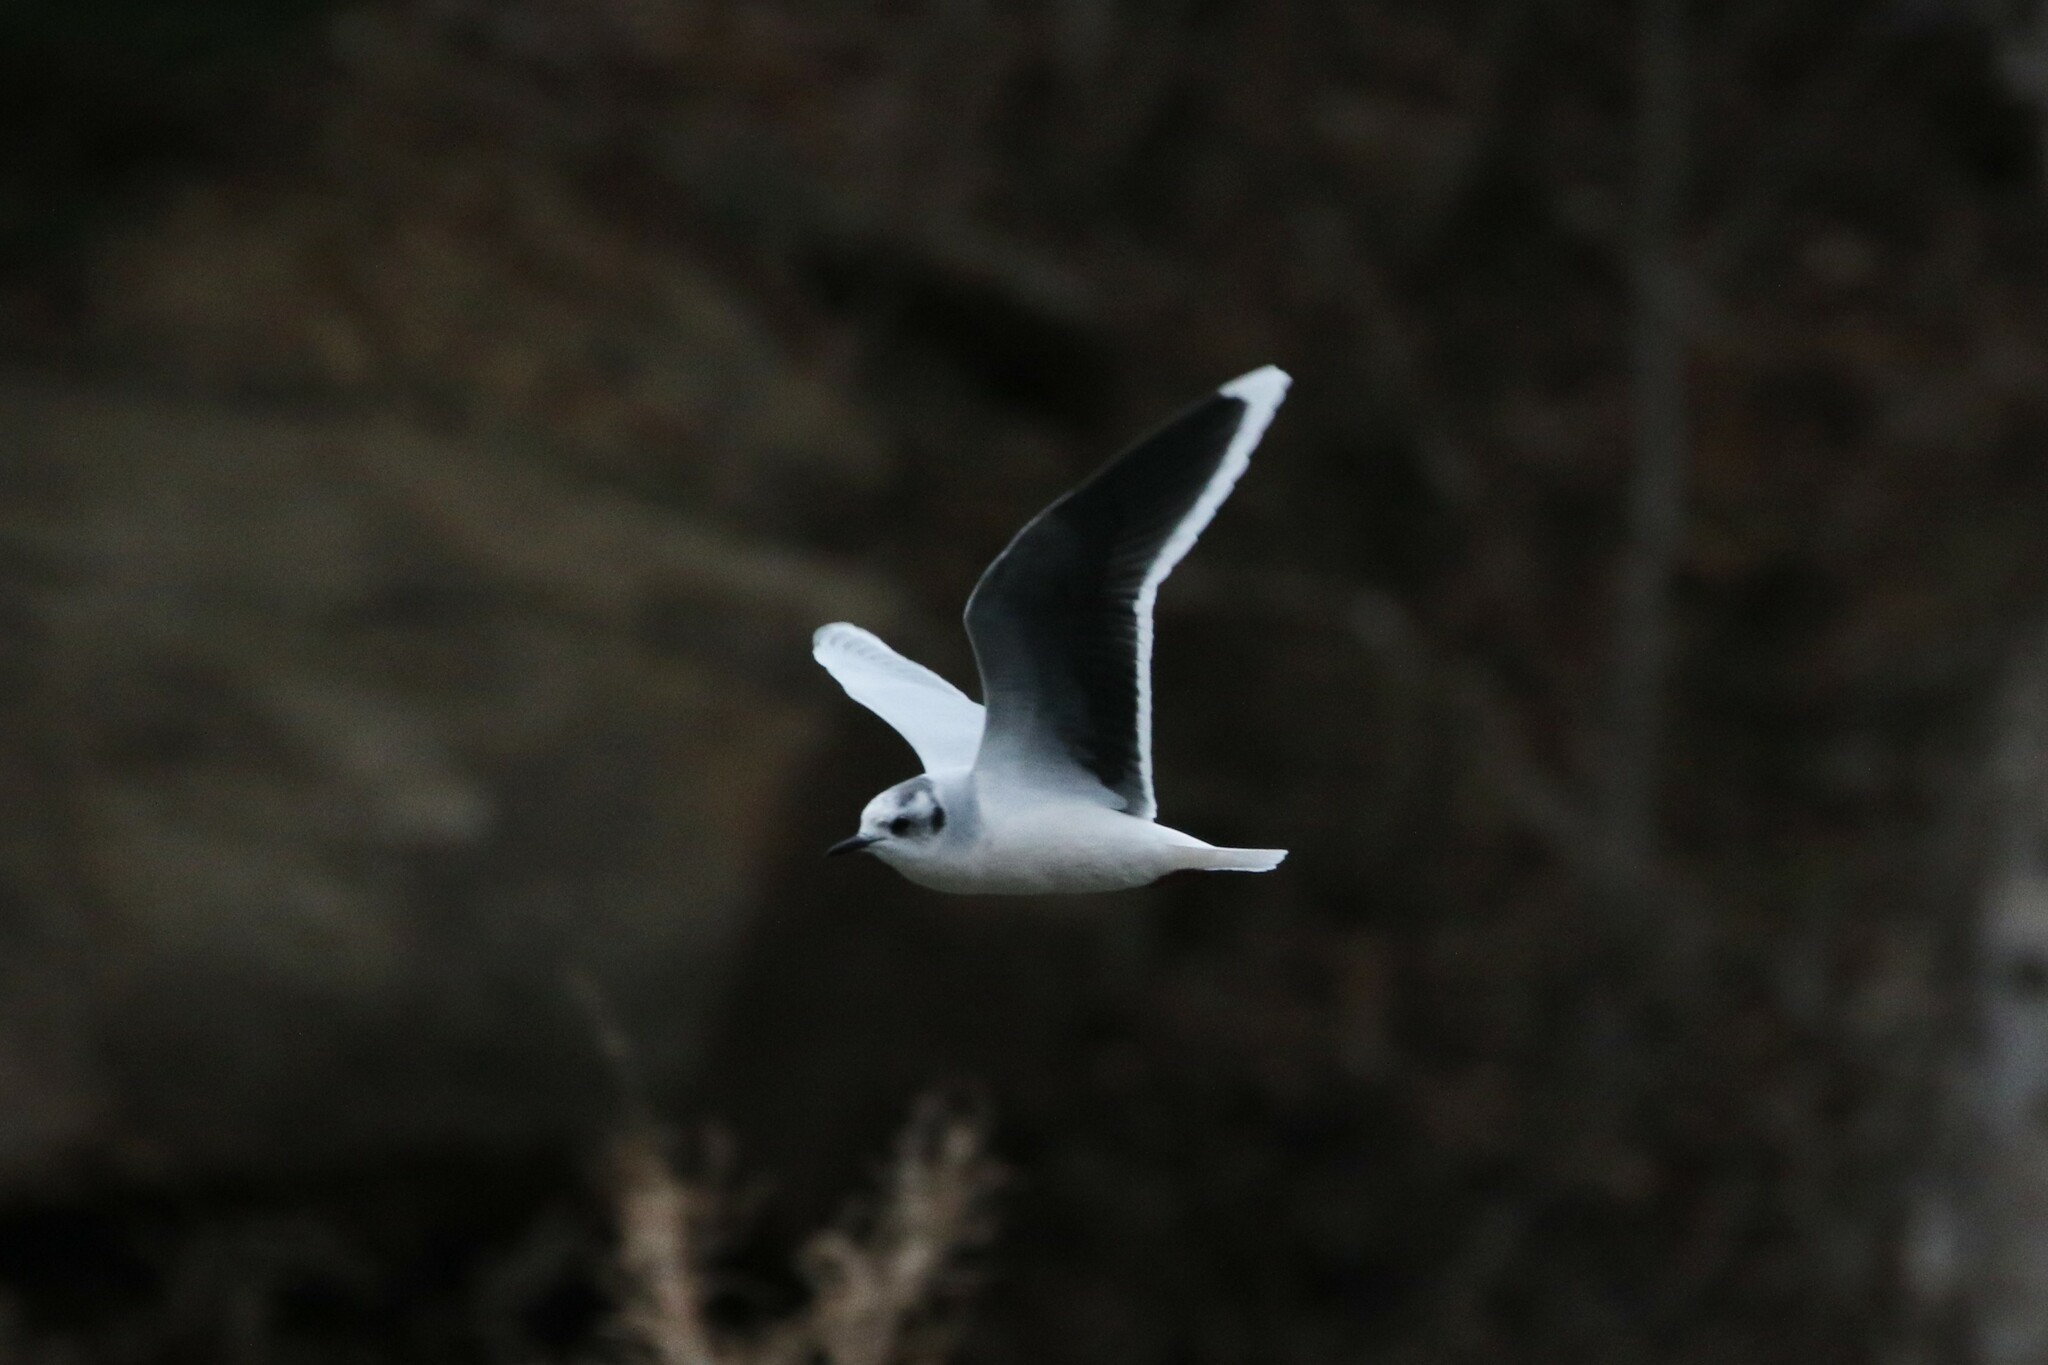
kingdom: Animalia
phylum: Chordata
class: Aves
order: Charadriiformes
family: Laridae
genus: Hydrocoloeus
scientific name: Hydrocoloeus minutus
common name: Little gull
